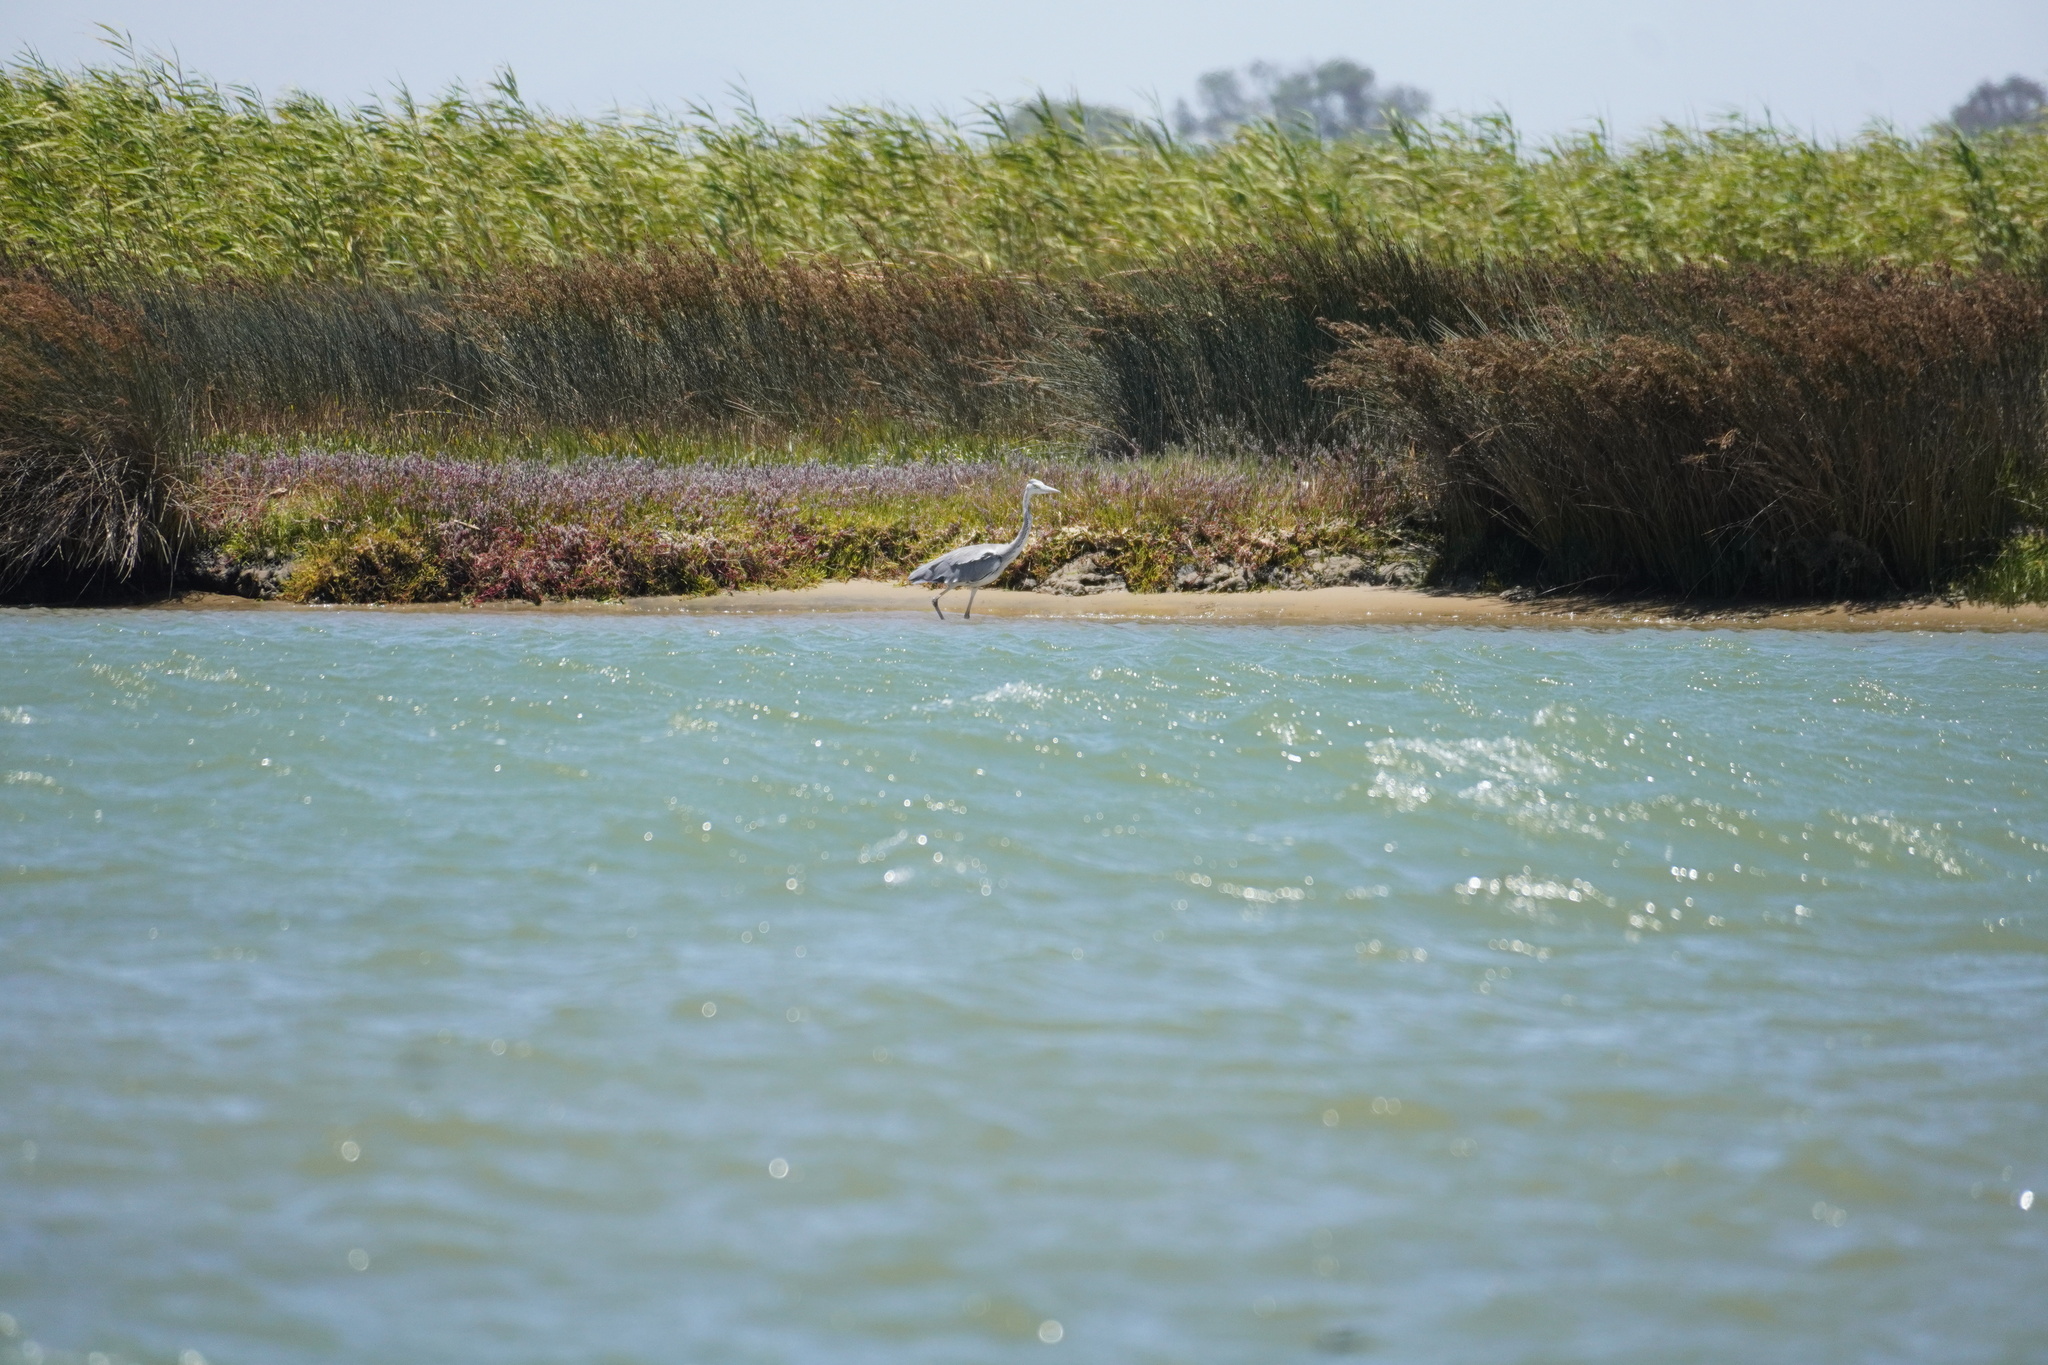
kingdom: Animalia
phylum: Chordata
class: Aves
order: Pelecaniformes
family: Ardeidae
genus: Ardea
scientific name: Ardea cinerea
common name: Grey heron
